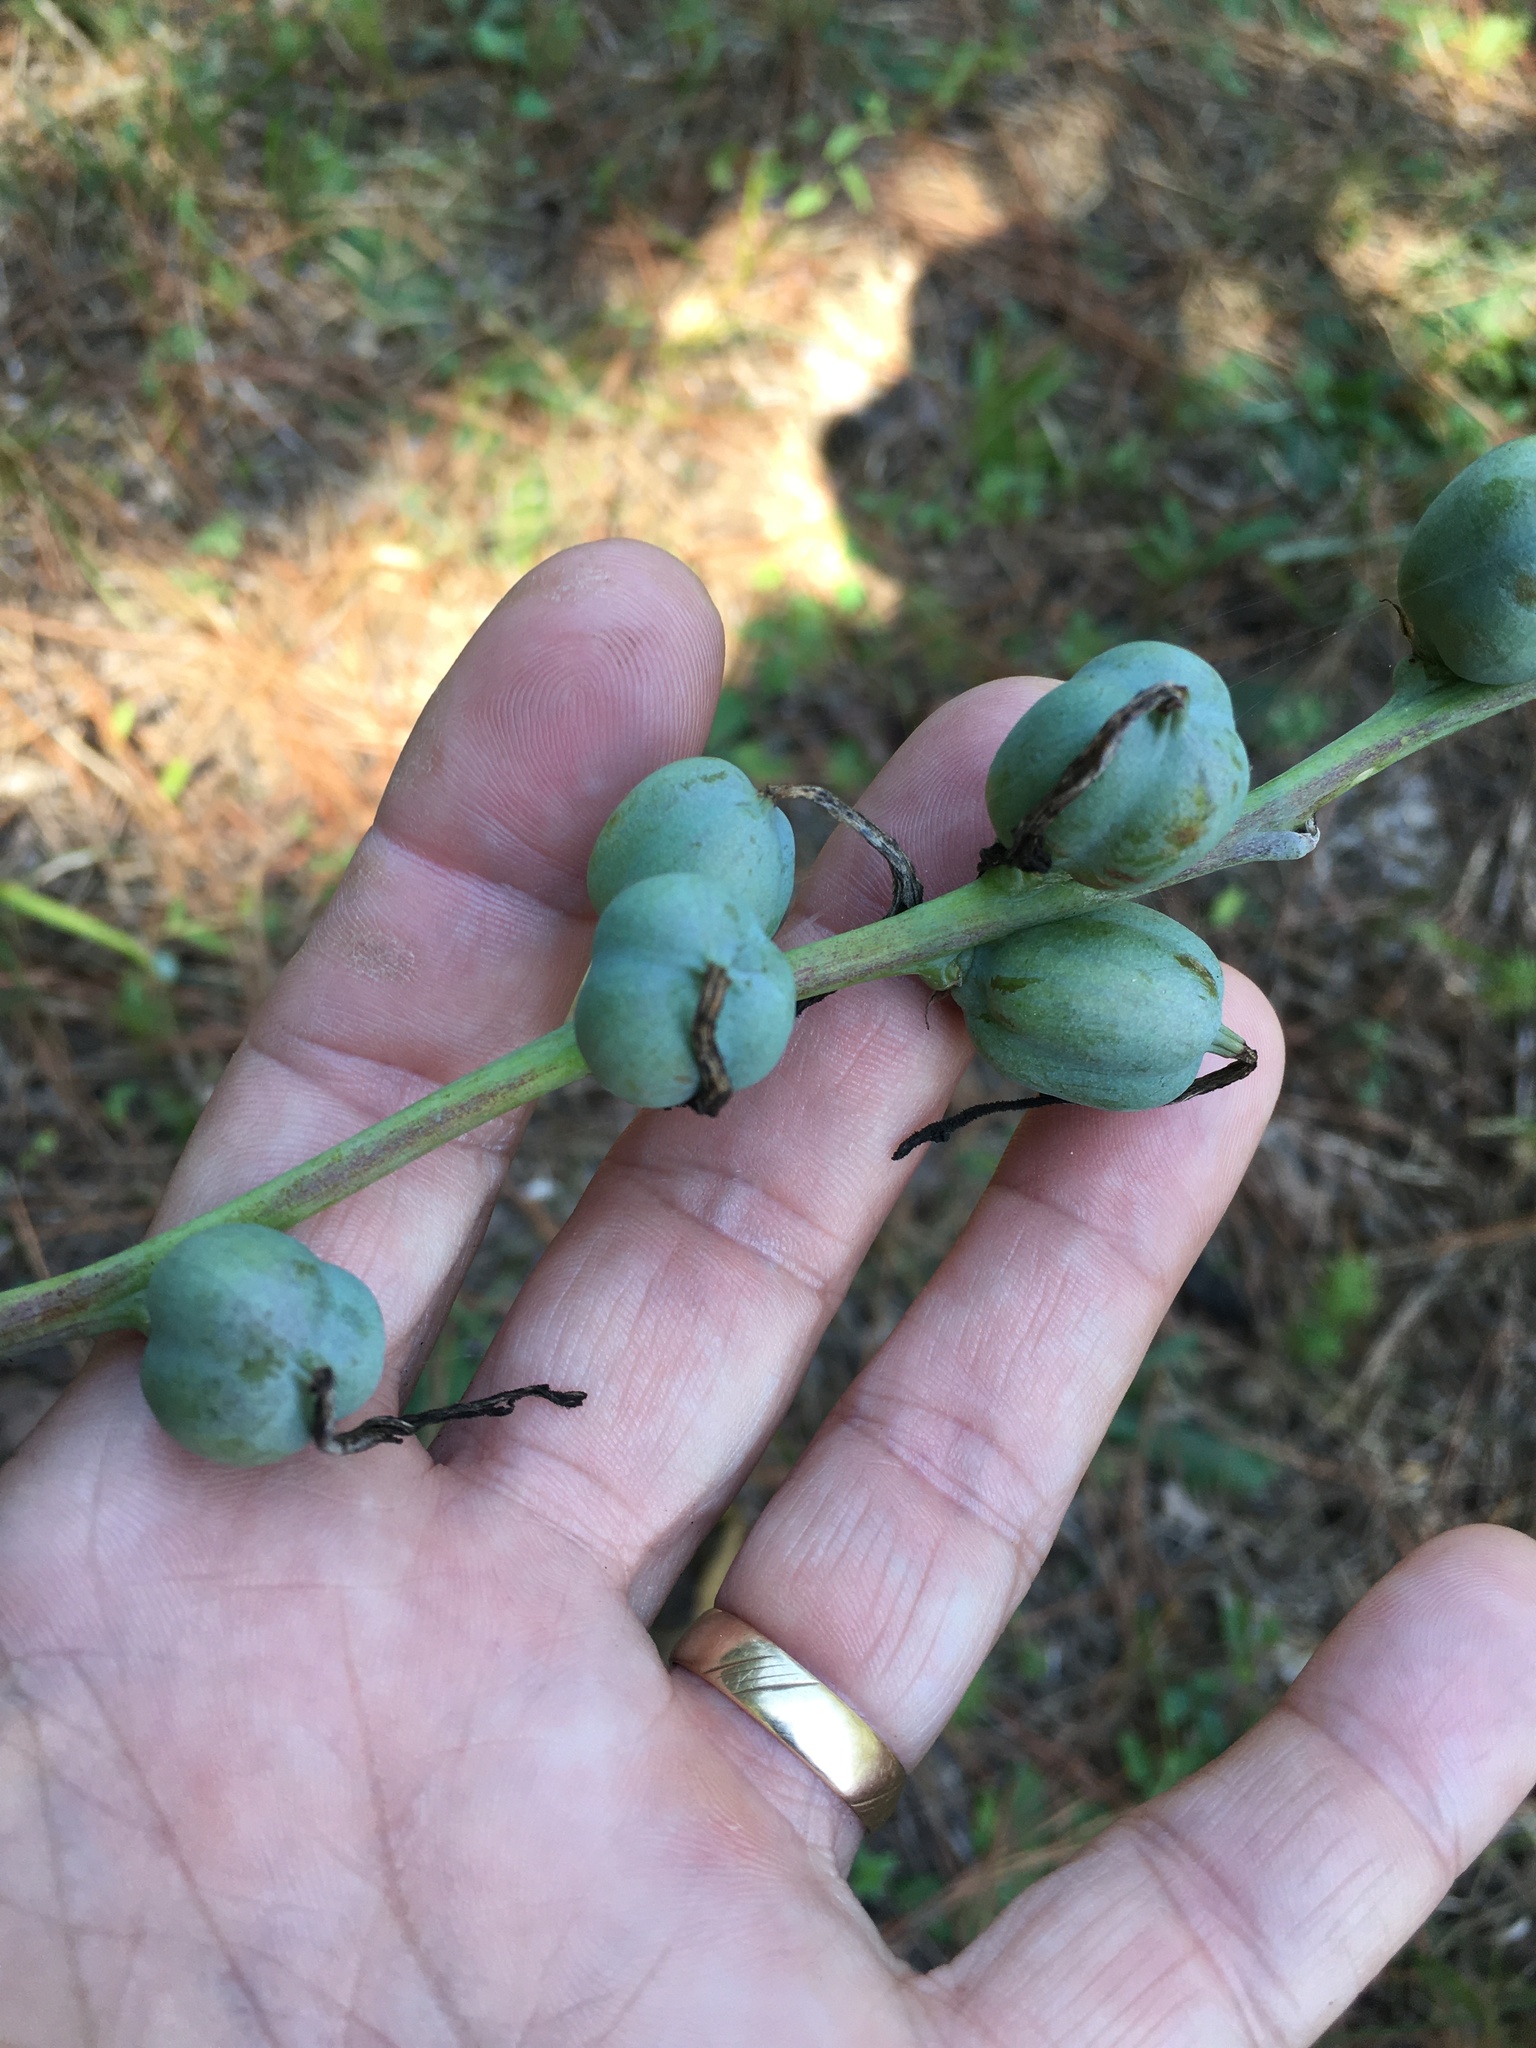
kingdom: Plantae
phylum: Tracheophyta
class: Liliopsida
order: Asparagales
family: Asparagaceae
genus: Agave
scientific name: Agave virginica
